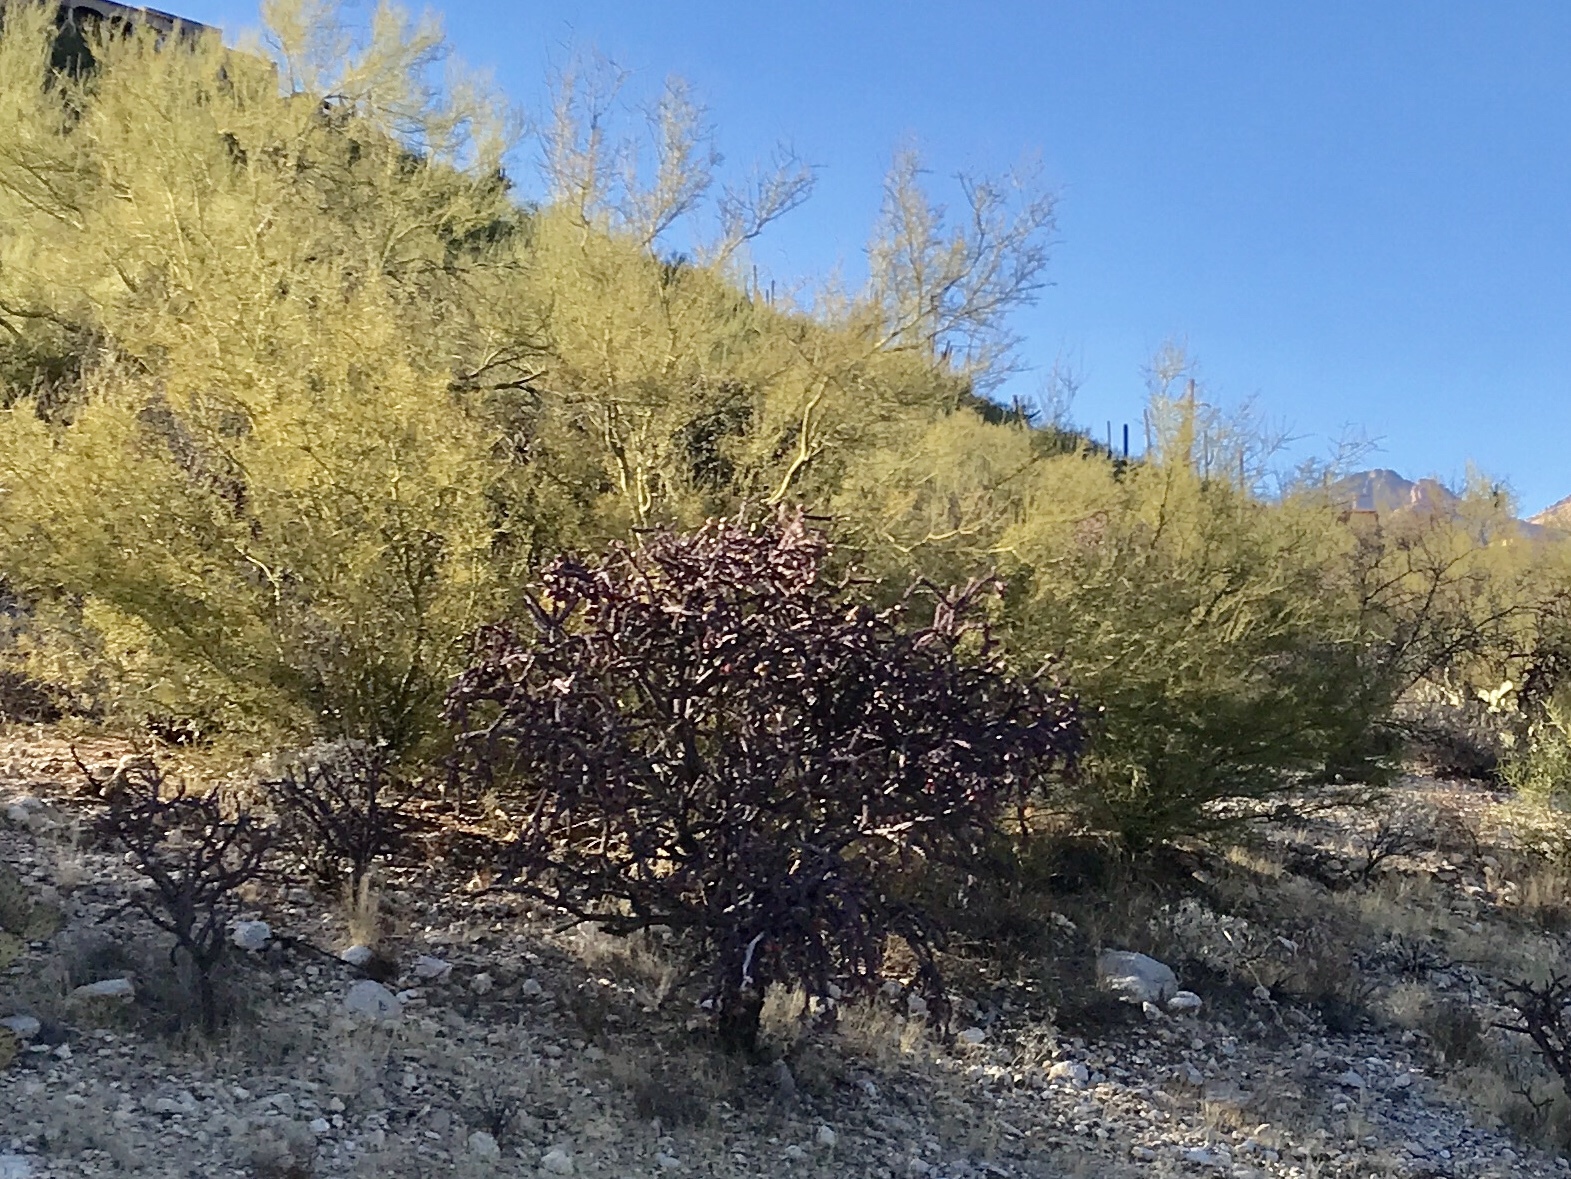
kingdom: Plantae
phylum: Tracheophyta
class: Magnoliopsida
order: Caryophyllales
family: Cactaceae
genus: Cylindropuntia
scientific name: Cylindropuntia thurberi
